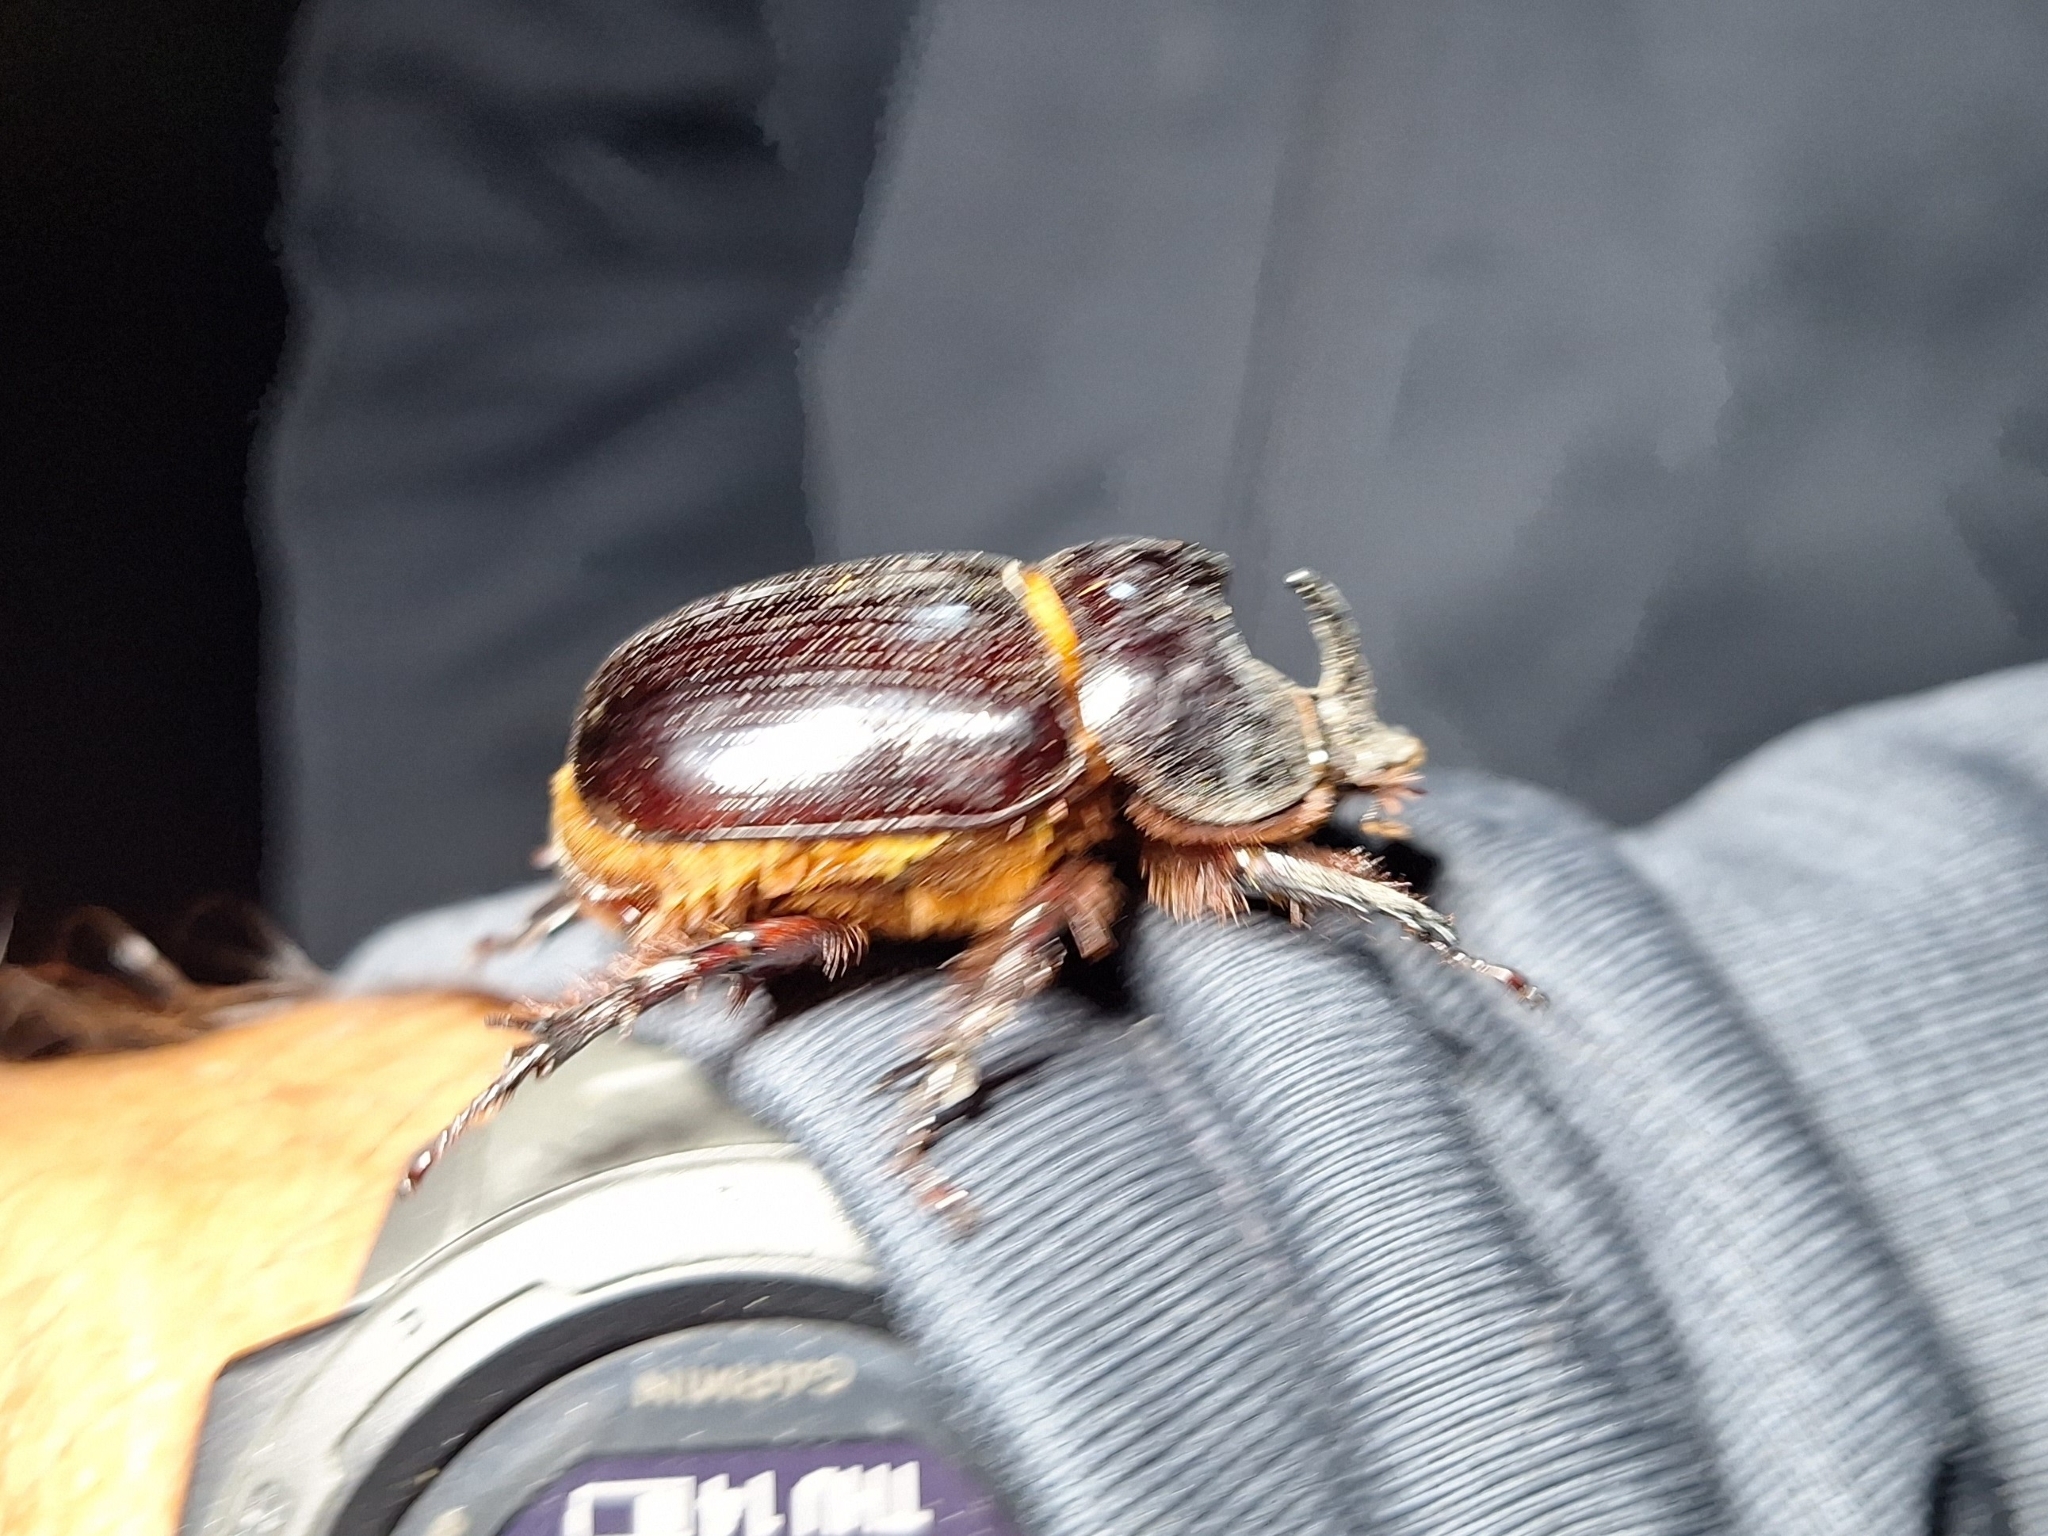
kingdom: Animalia
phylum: Arthropoda
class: Insecta
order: Coleoptera
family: Scarabaeidae
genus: Xyloryctes
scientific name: Xyloryctes thestalus
